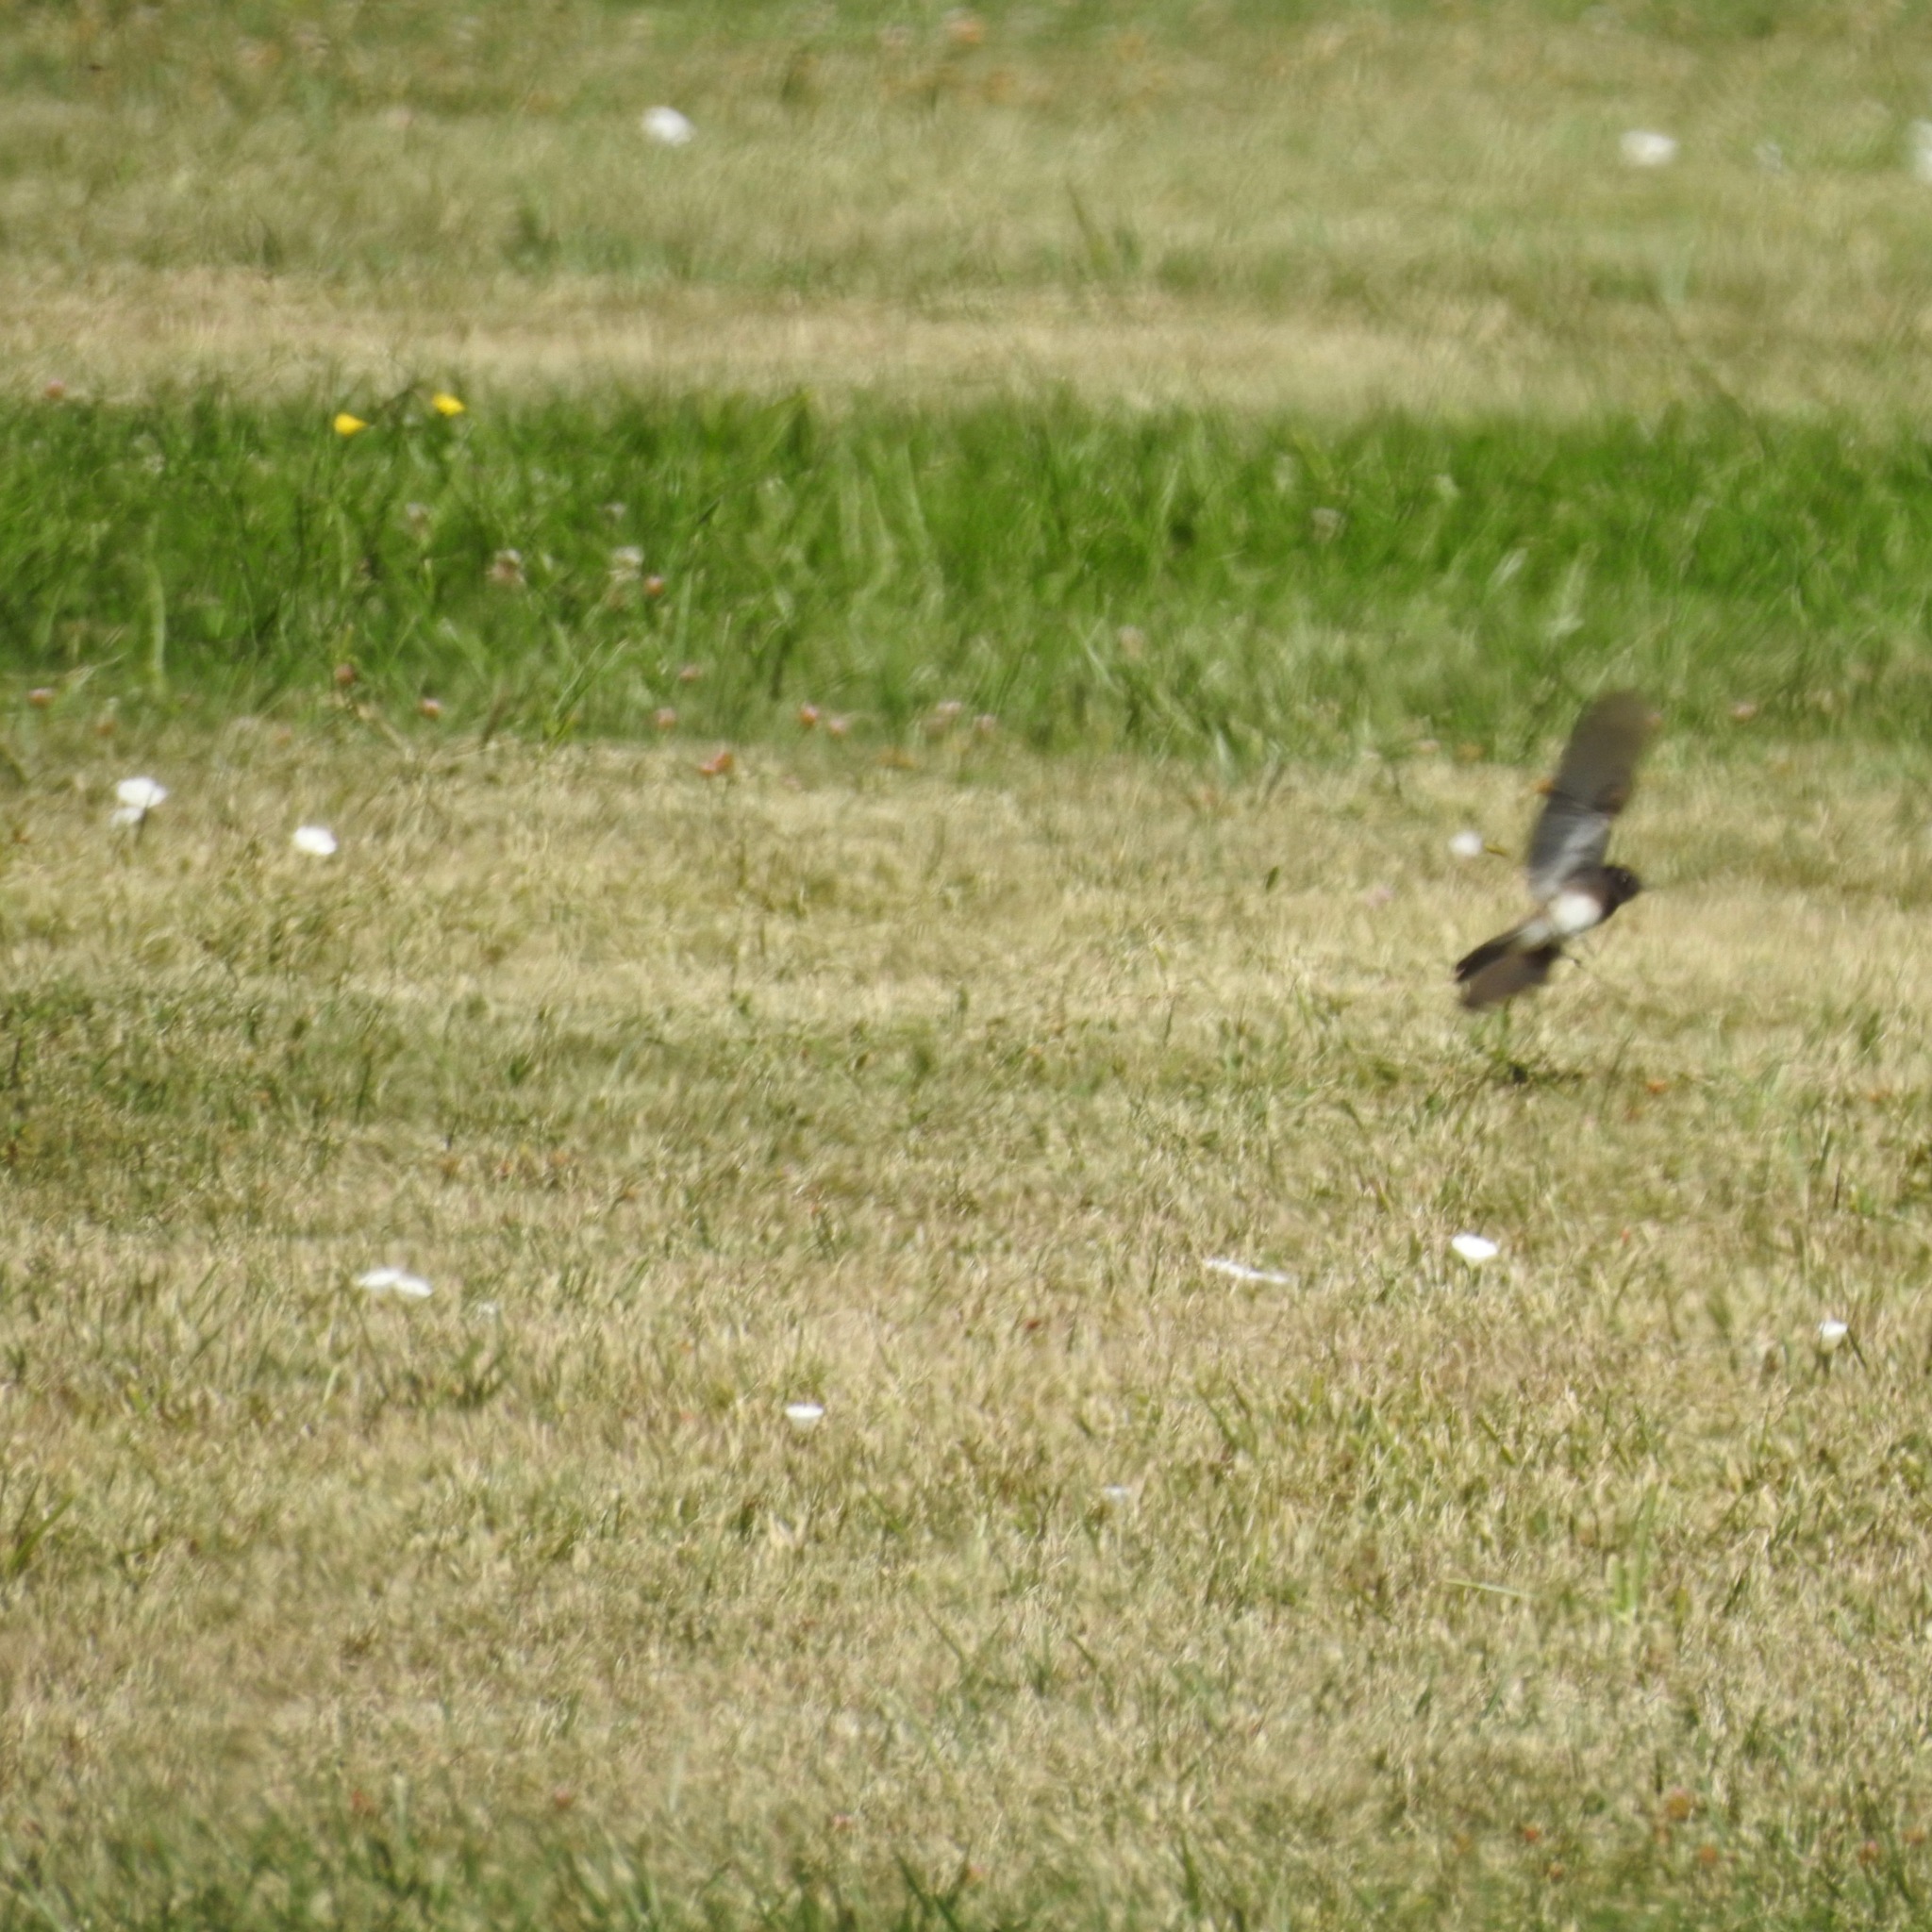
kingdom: Animalia
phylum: Chordata
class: Aves
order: Passeriformes
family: Tyrannidae
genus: Sayornis
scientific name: Sayornis nigricans
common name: Black phoebe
